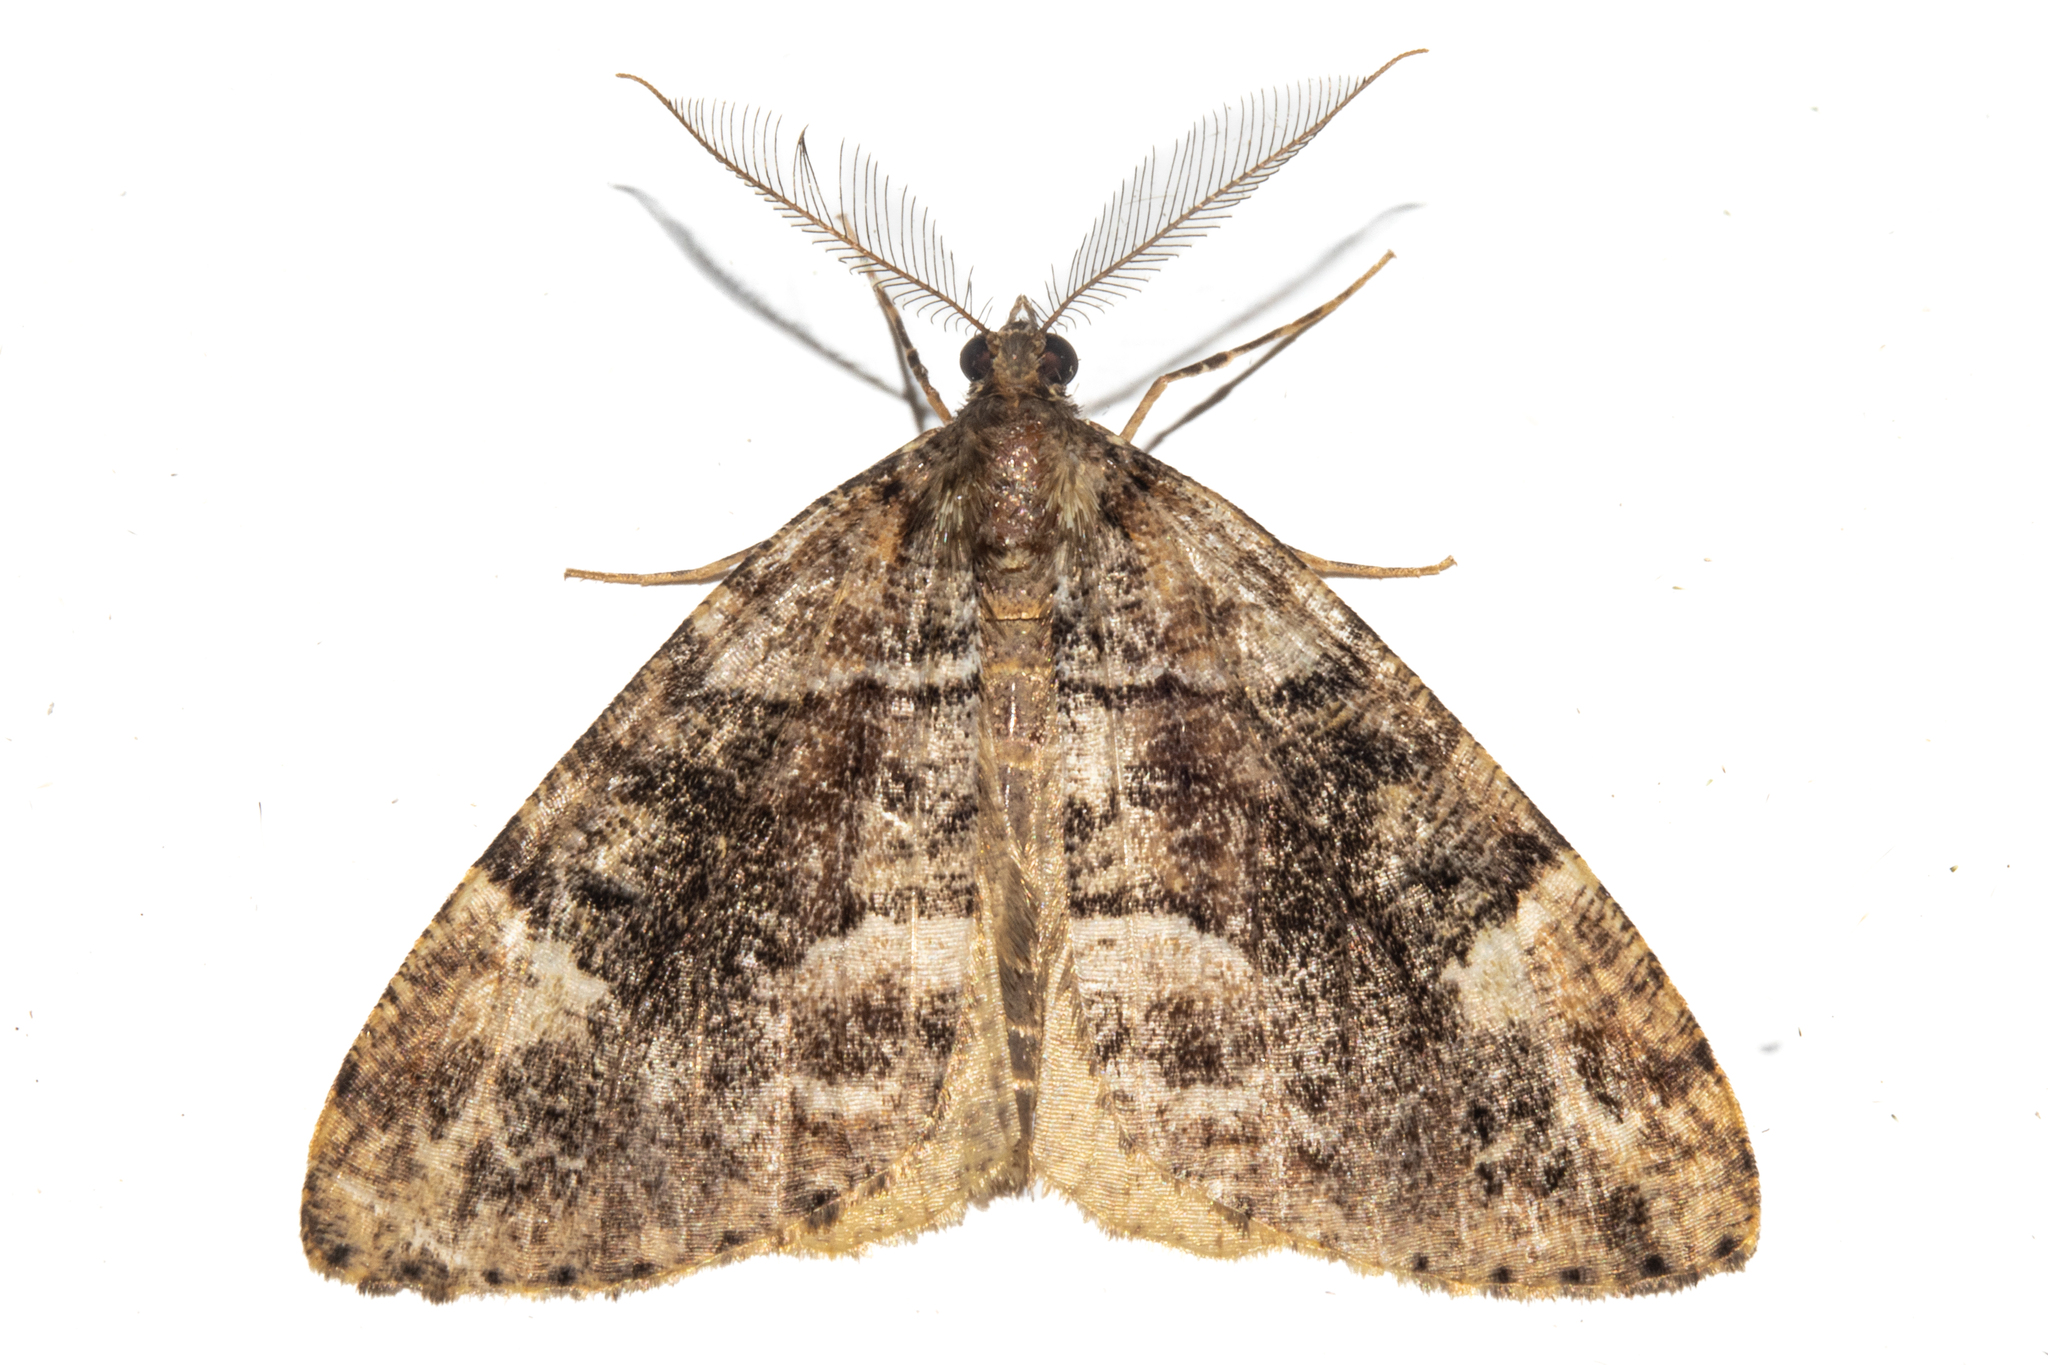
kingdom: Animalia
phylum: Arthropoda
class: Insecta
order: Lepidoptera
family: Geometridae
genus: Pseudocoremia
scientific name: Pseudocoremia productata
